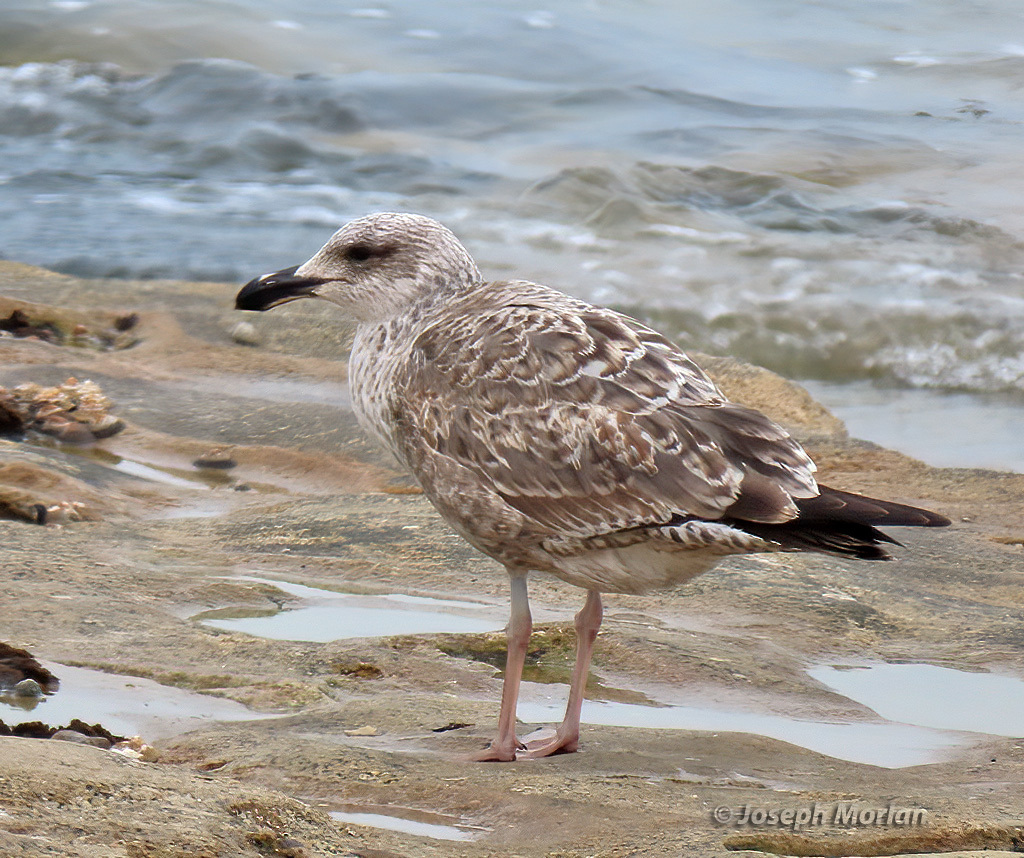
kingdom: Animalia
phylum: Chordata
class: Aves
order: Charadriiformes
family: Laridae
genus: Larus
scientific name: Larus dominicanus
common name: Kelp gull
